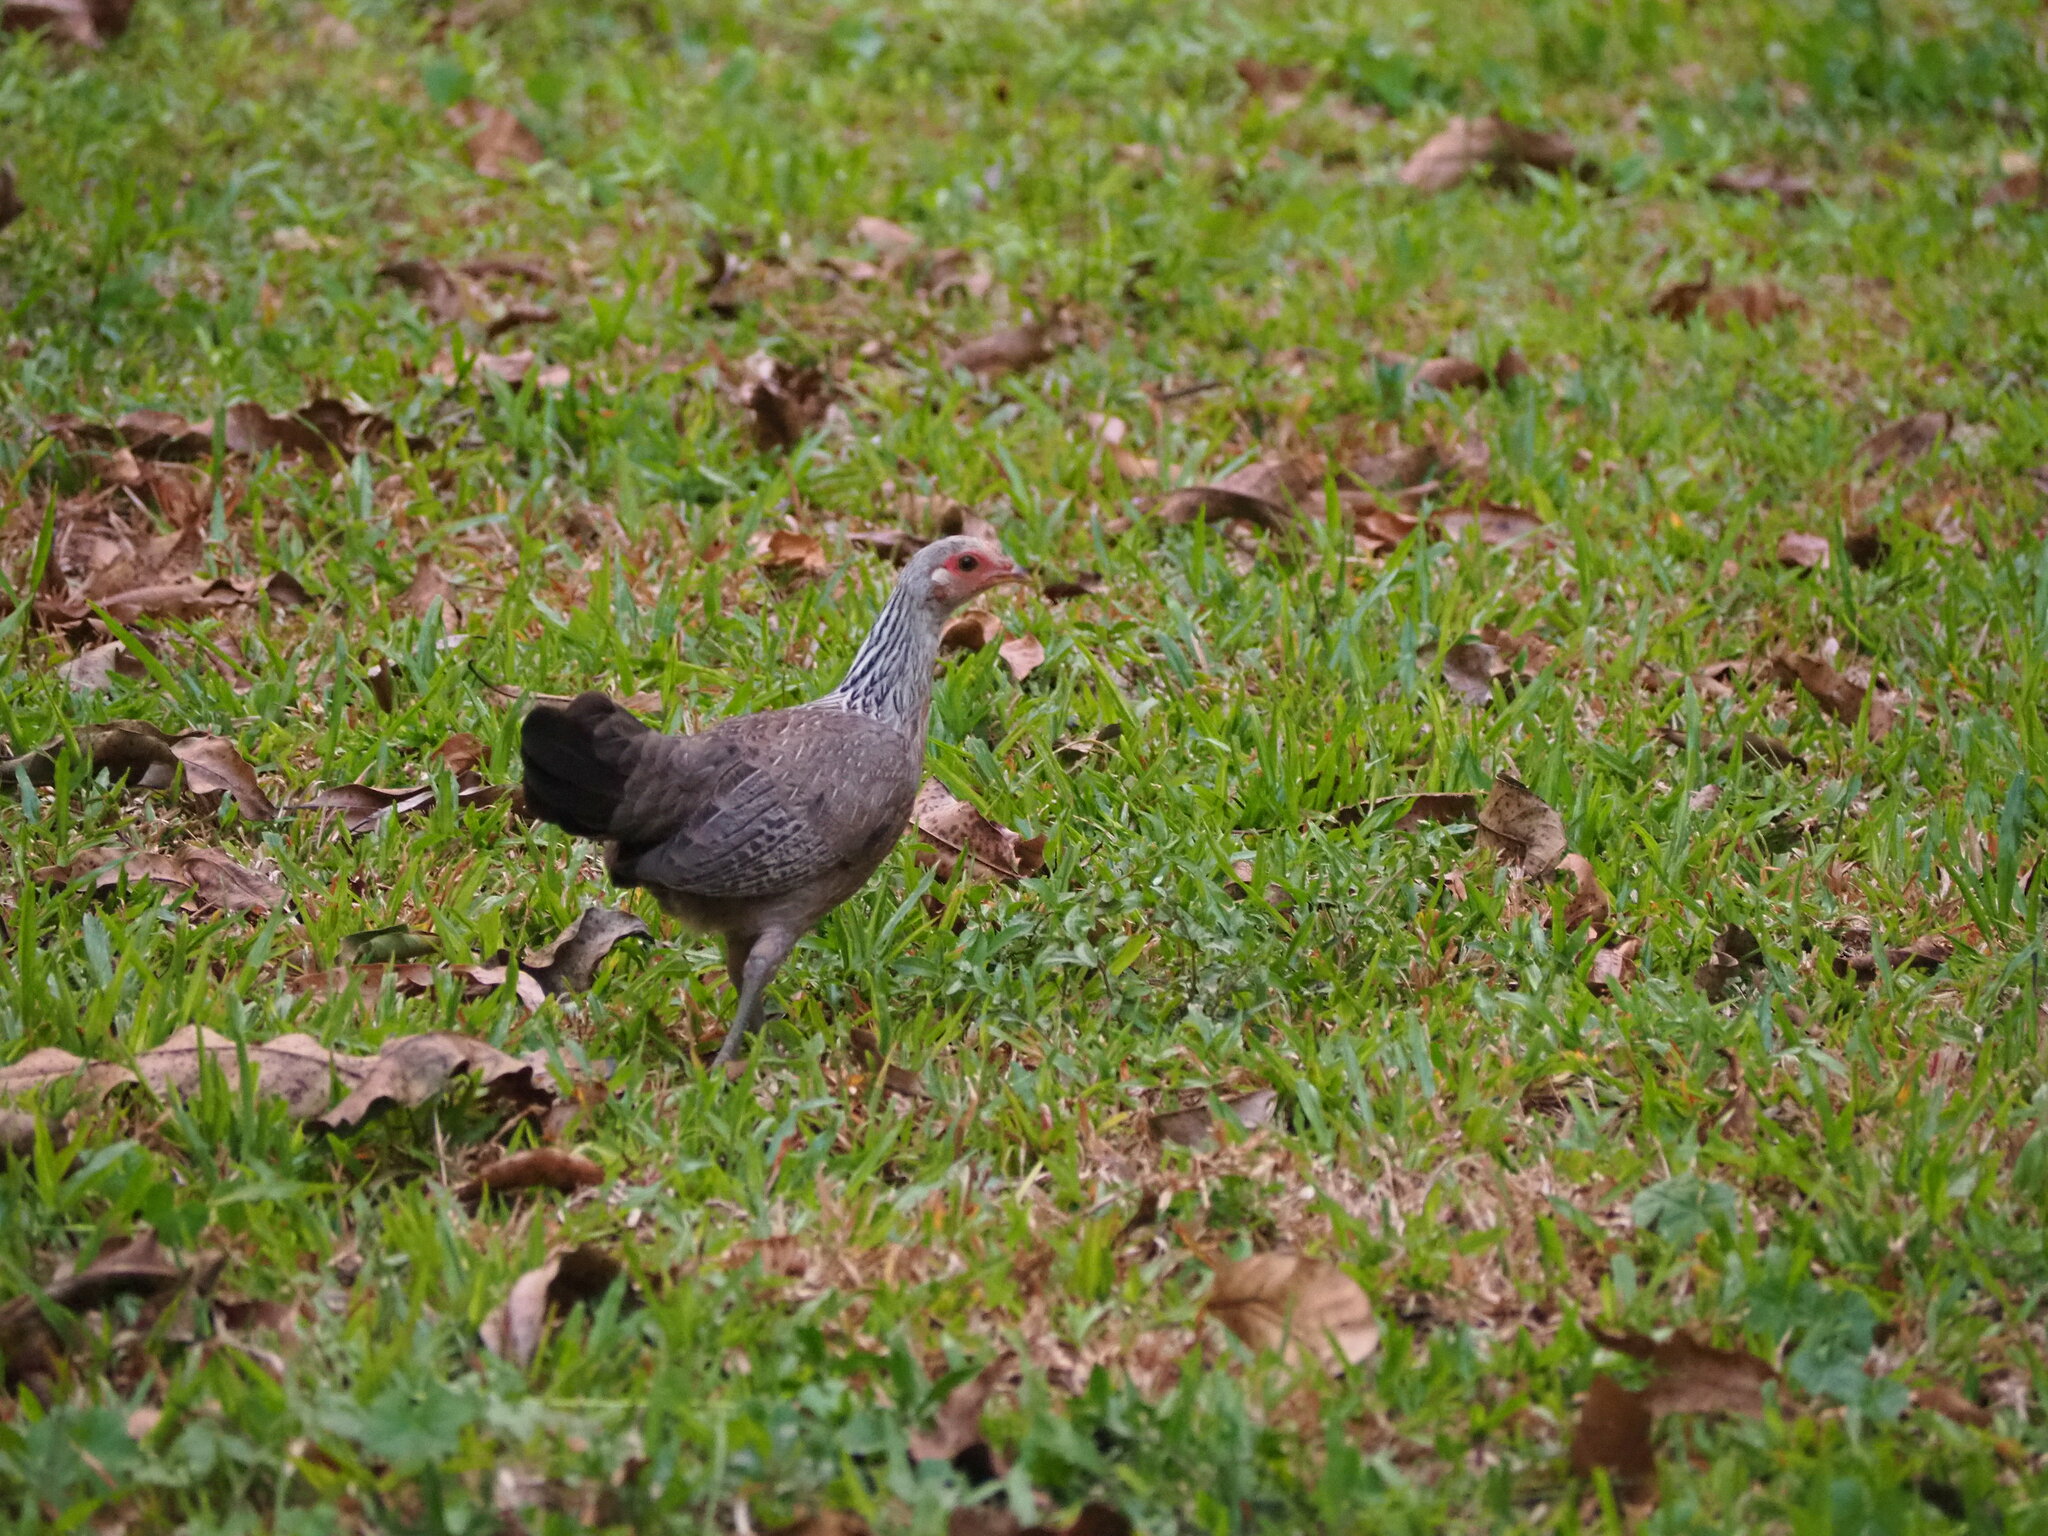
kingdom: Animalia
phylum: Chordata
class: Aves
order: Galliformes
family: Phasianidae
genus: Gallus
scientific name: Gallus gallus
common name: Red junglefowl
